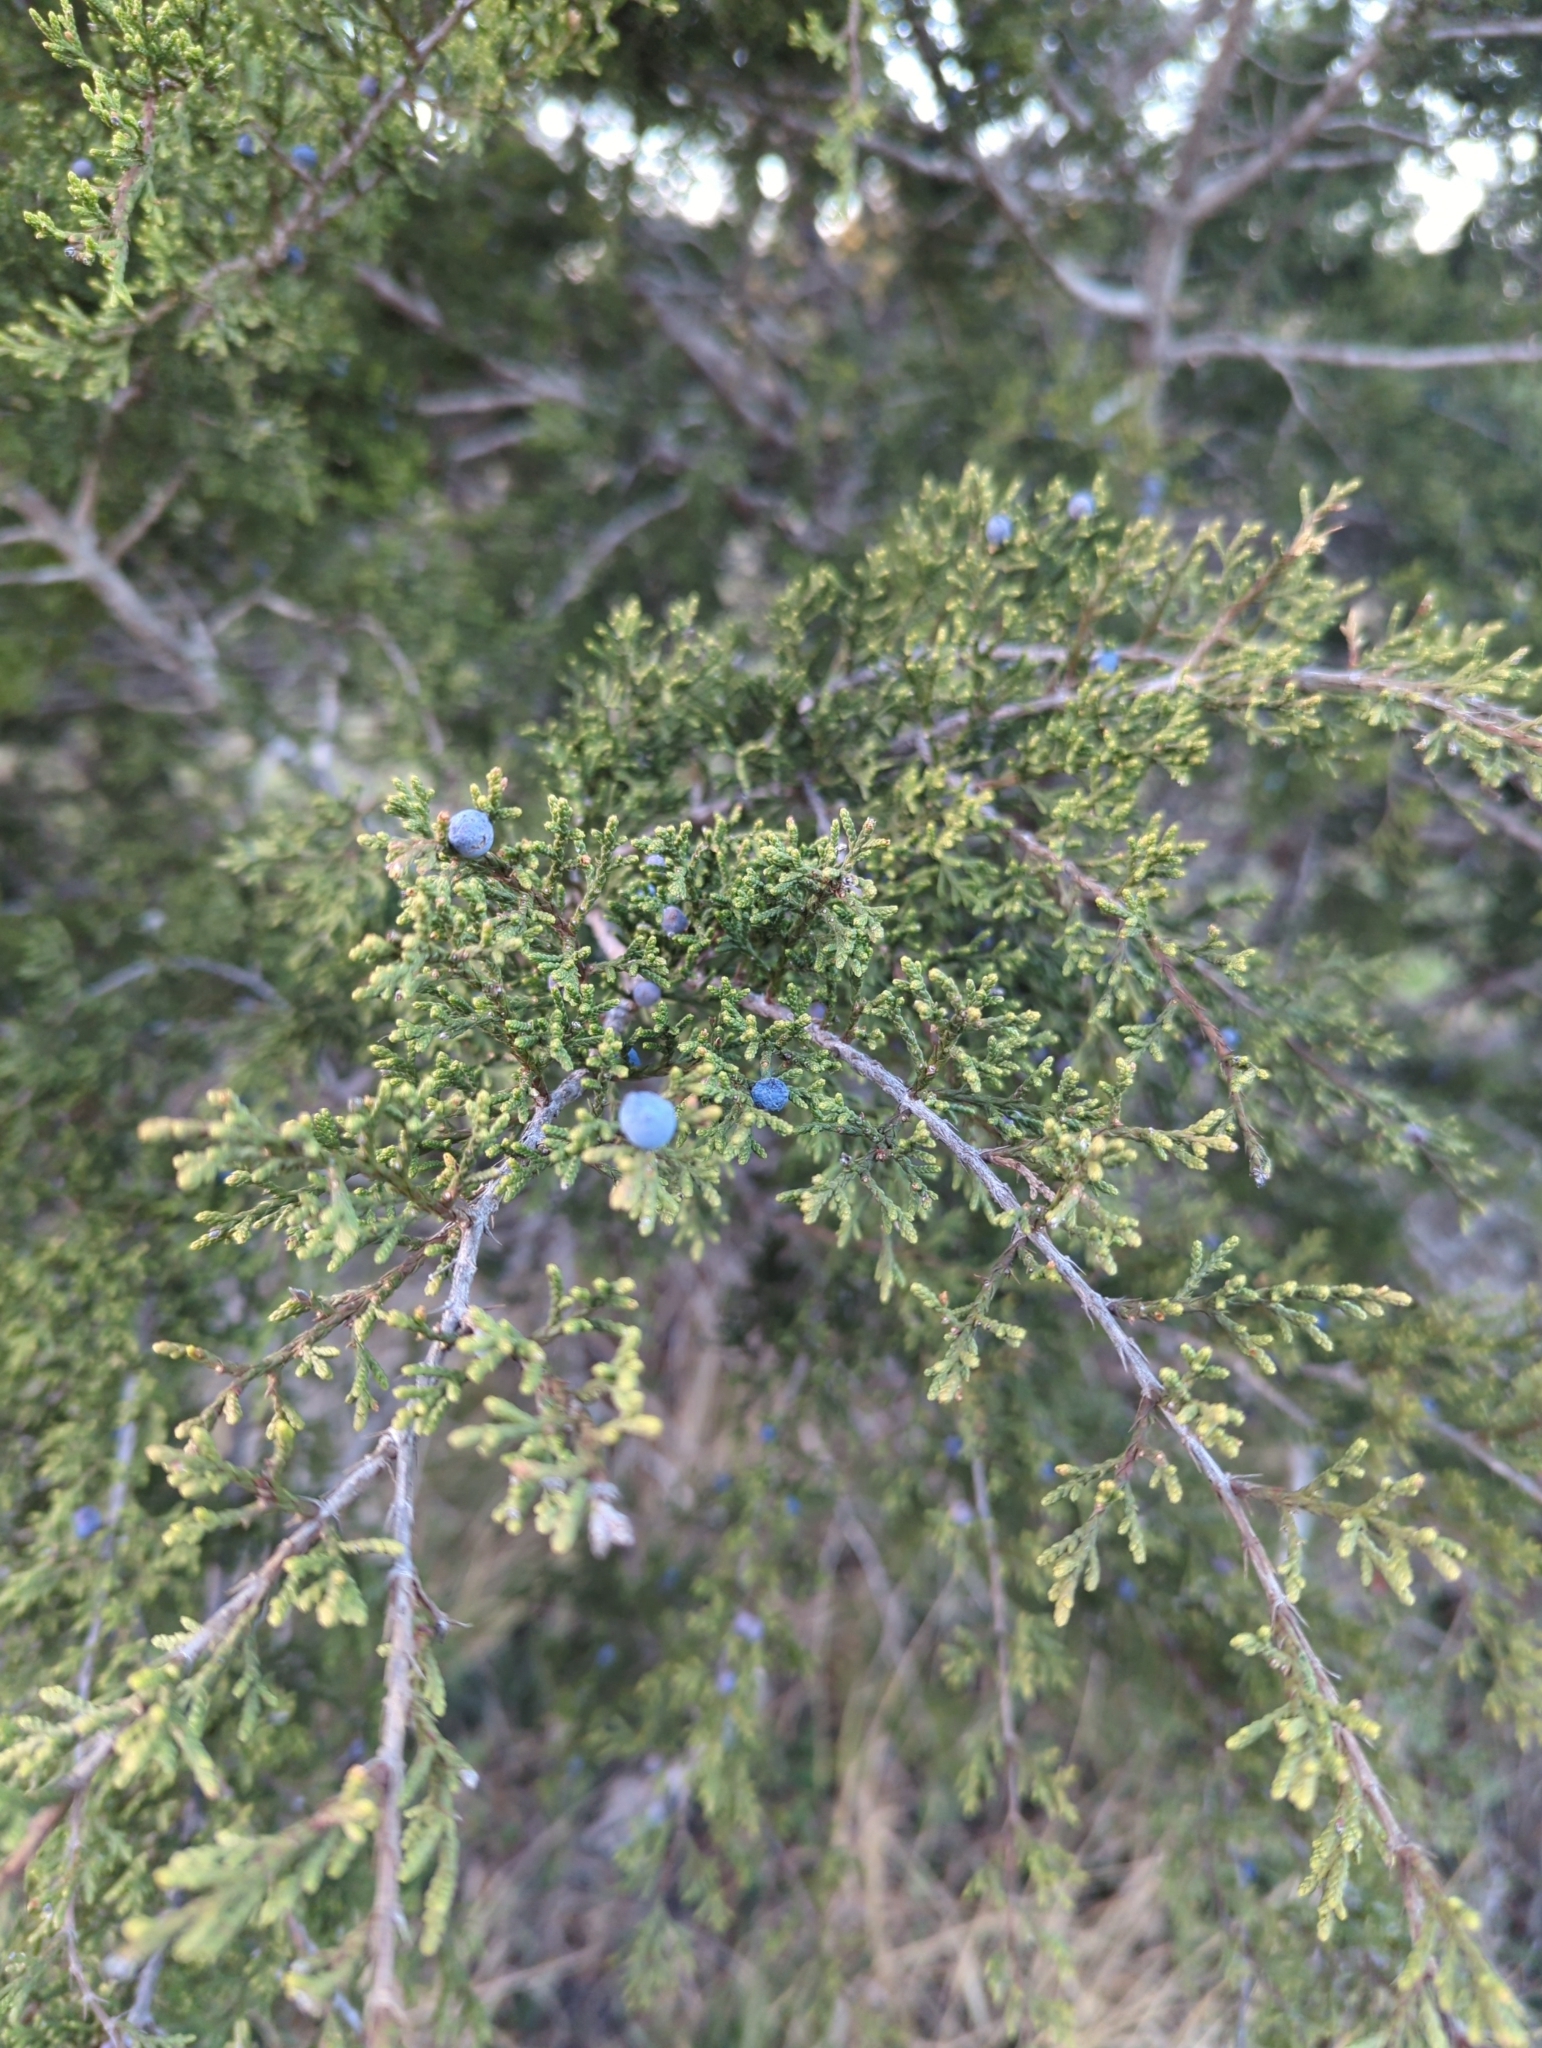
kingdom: Plantae
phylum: Tracheophyta
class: Pinopsida
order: Pinales
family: Cupressaceae
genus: Juniperus
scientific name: Juniperus ashei
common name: Mexican juniper
